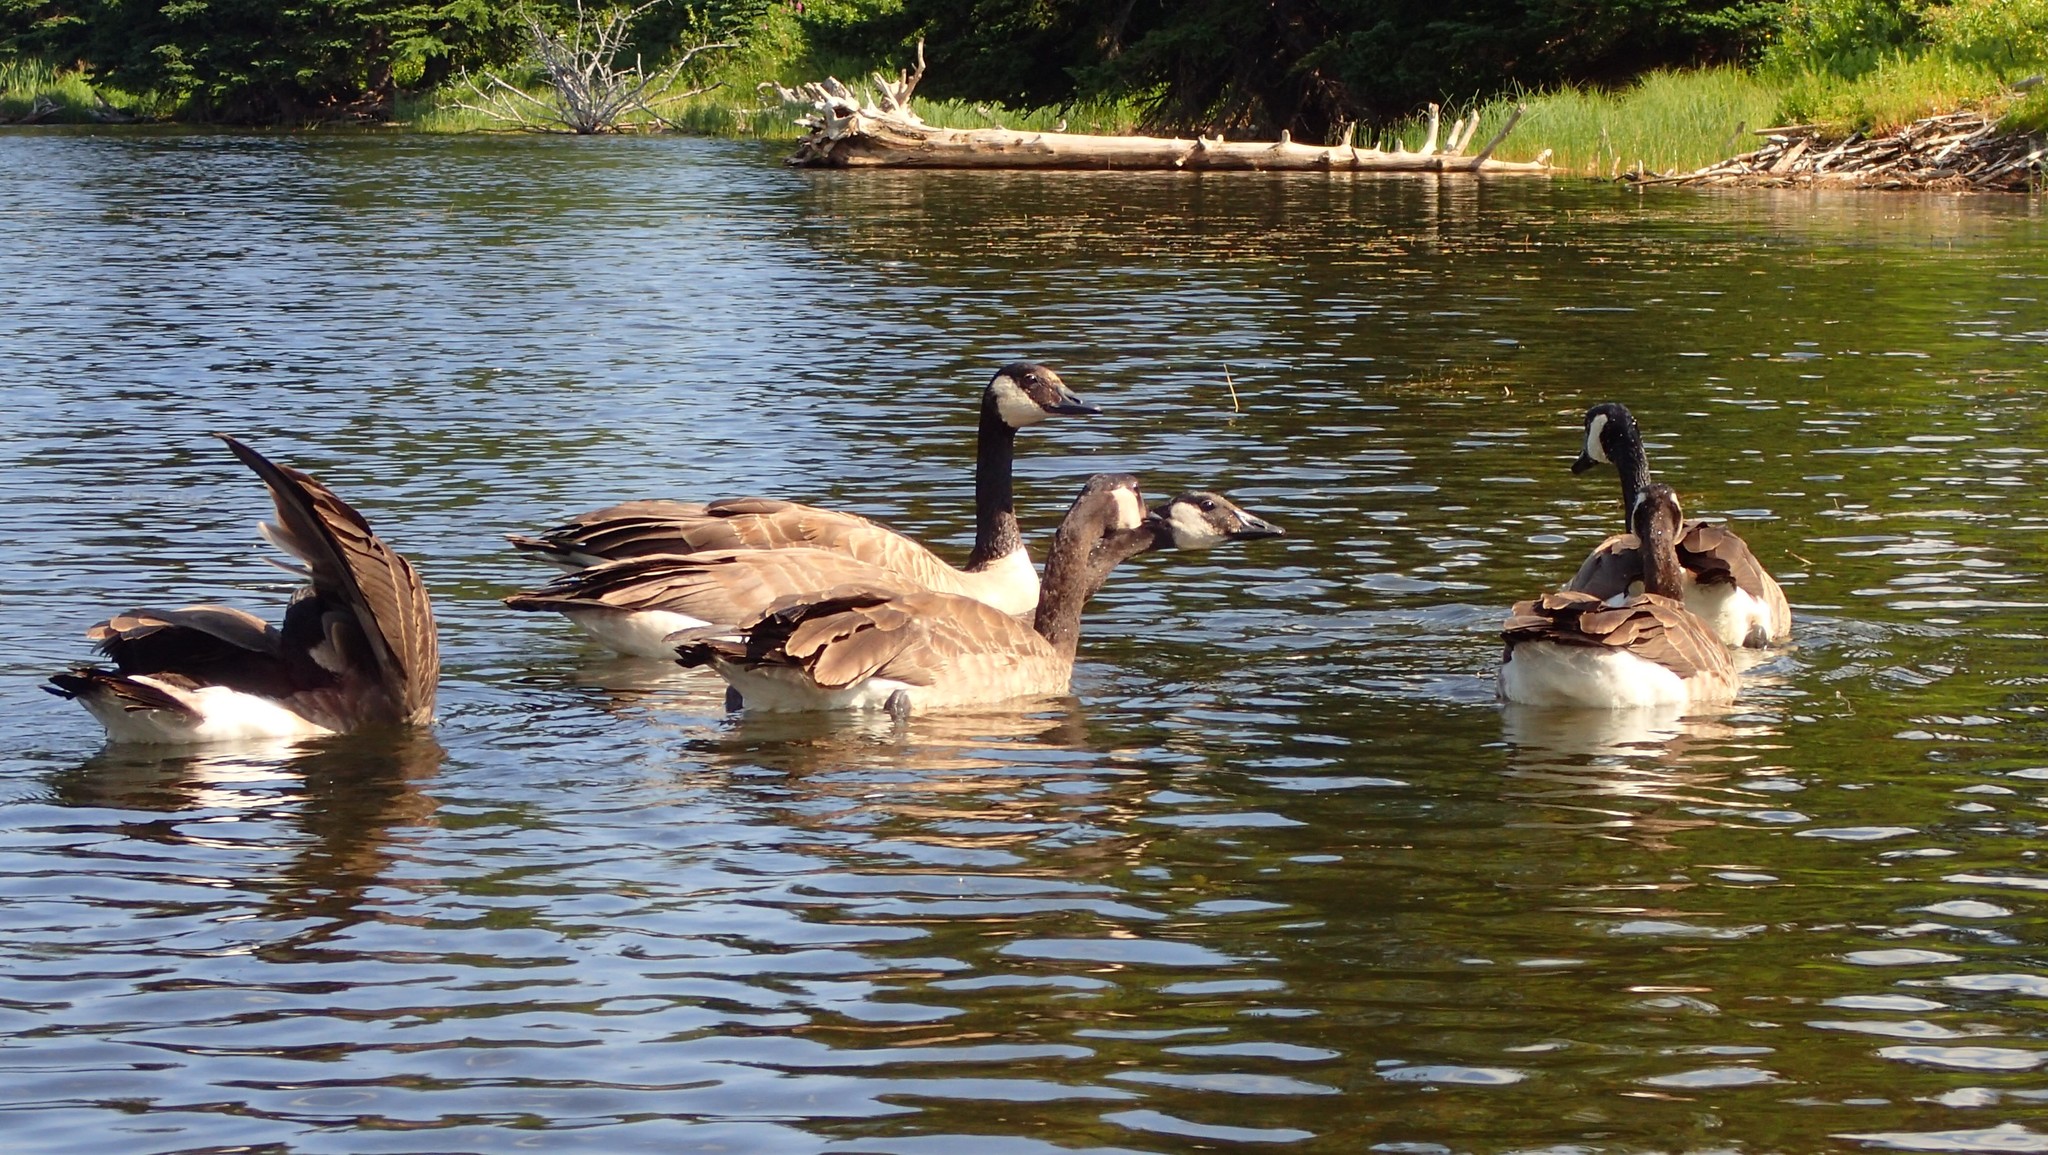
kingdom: Animalia
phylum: Chordata
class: Aves
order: Anseriformes
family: Anatidae
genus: Branta
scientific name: Branta canadensis
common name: Canada goose
